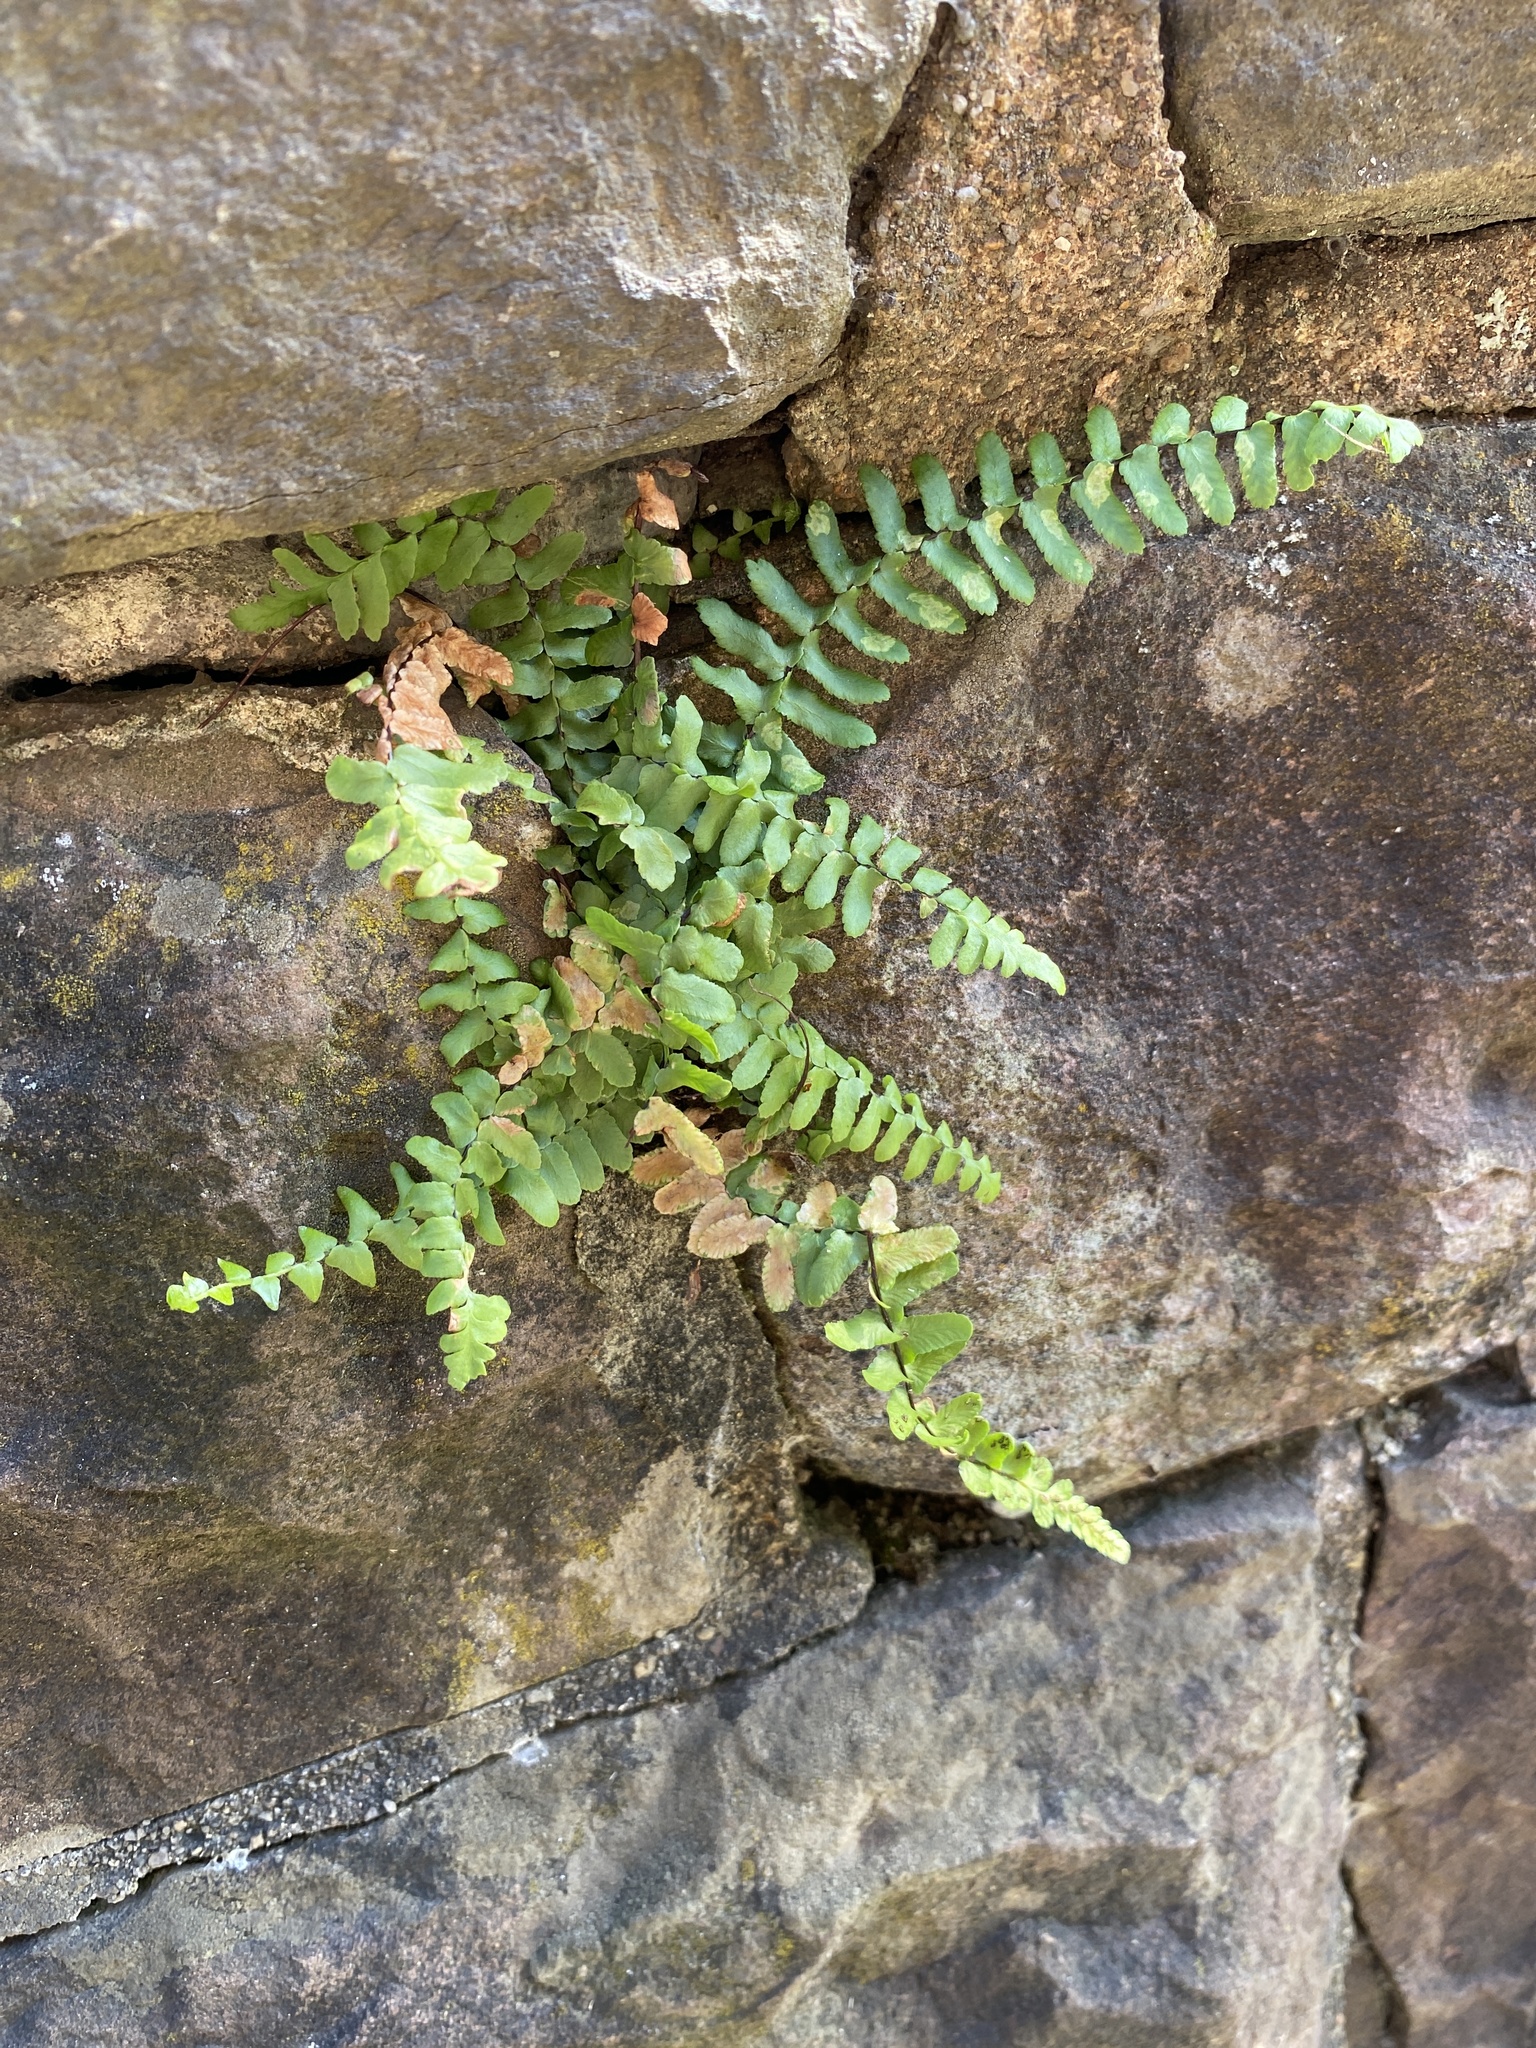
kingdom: Plantae
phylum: Tracheophyta
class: Polypodiopsida
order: Polypodiales
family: Aspleniaceae
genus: Asplenium
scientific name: Asplenium platyneuron
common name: Ebony spleenwort
